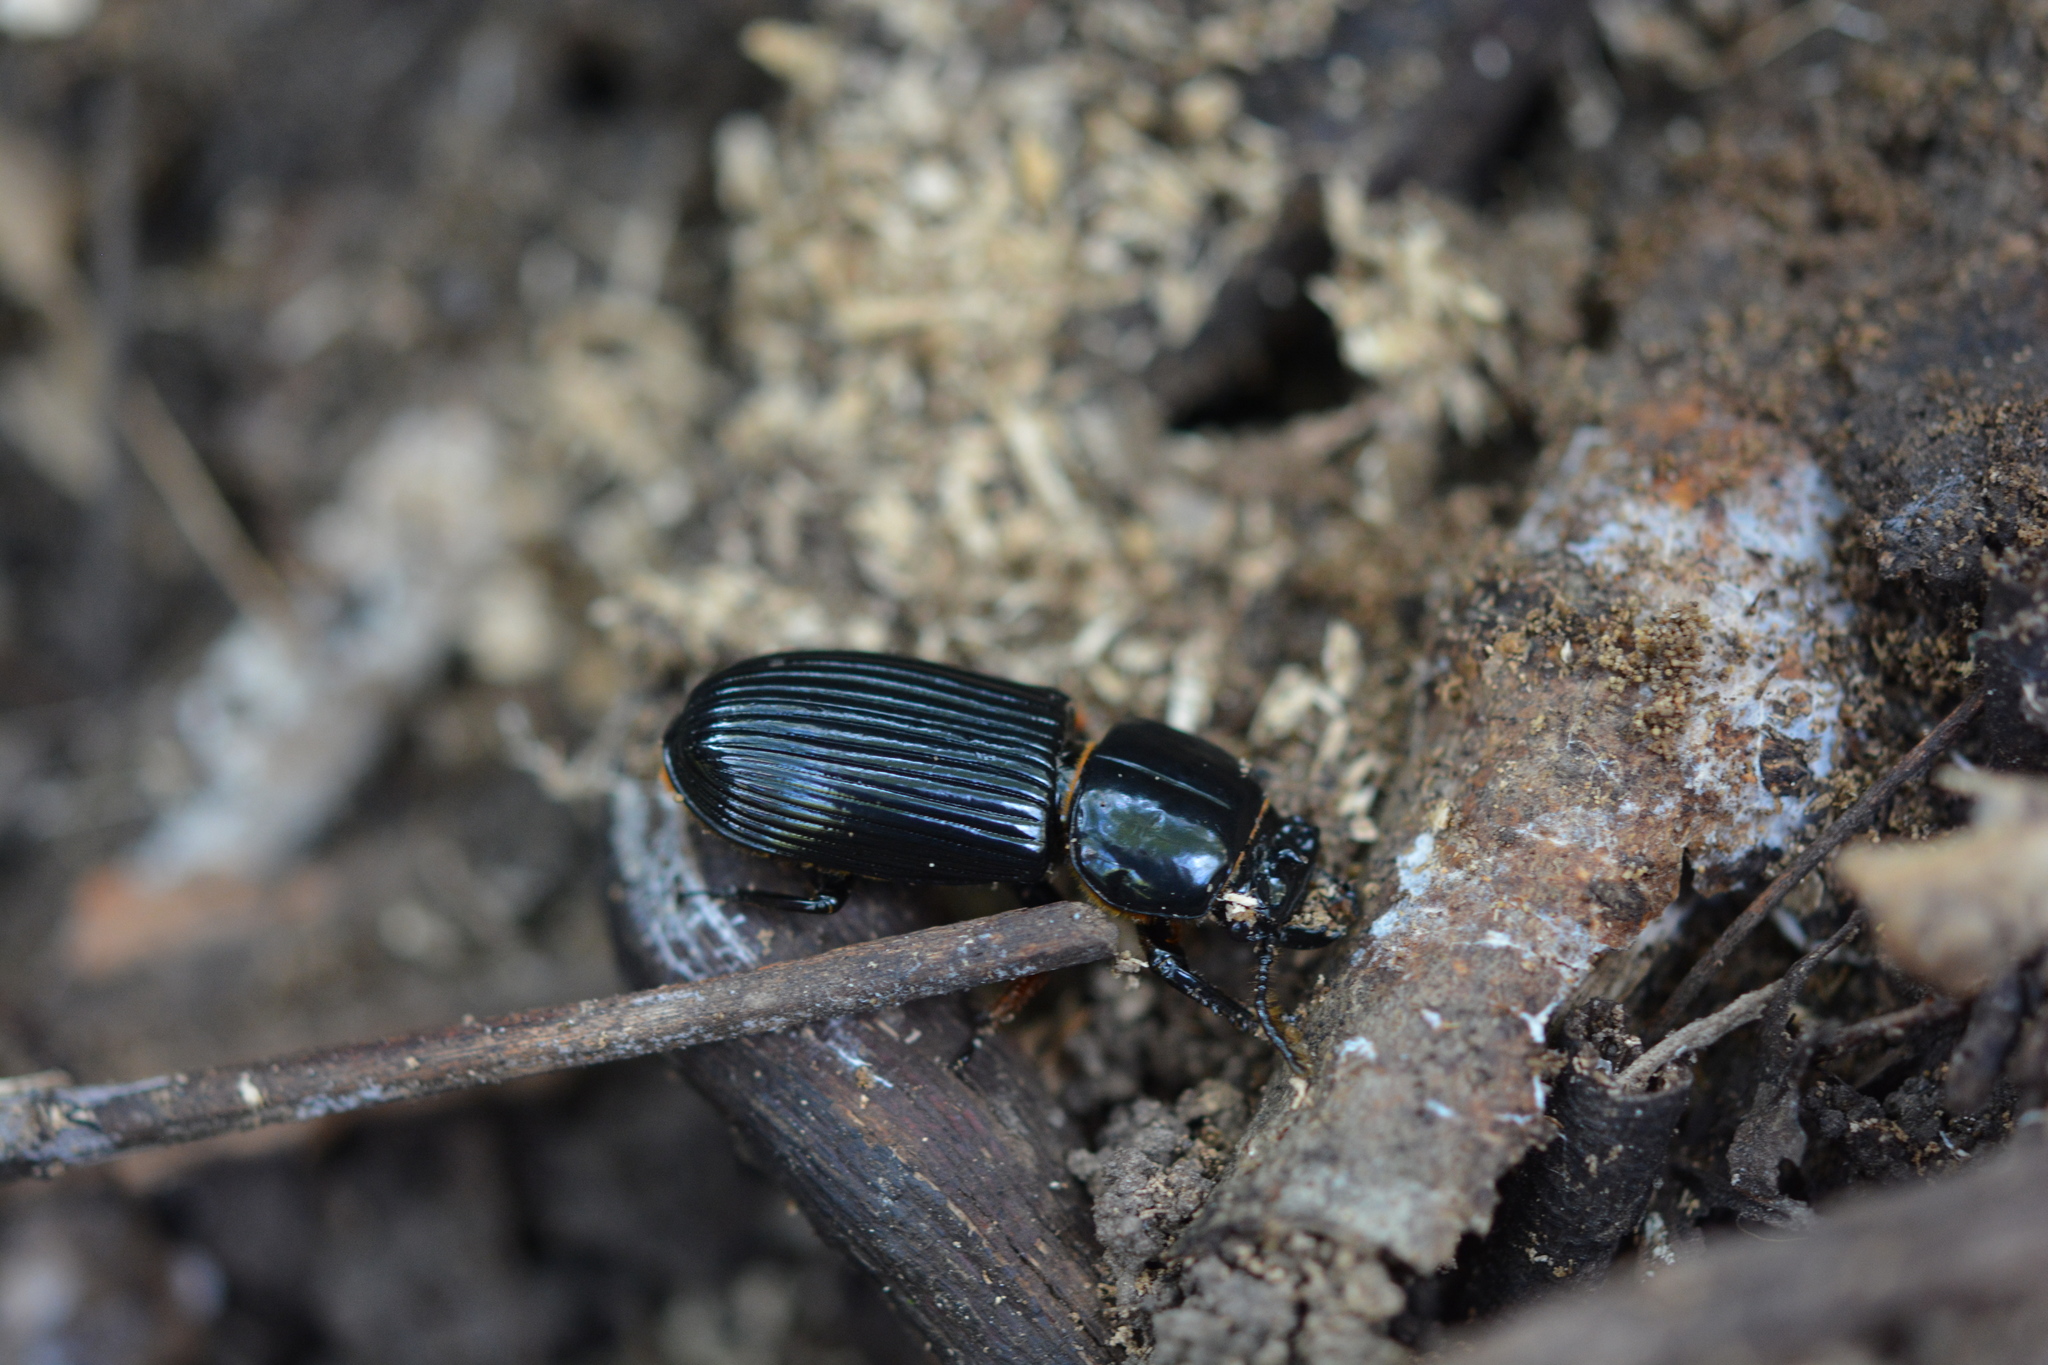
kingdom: Animalia
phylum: Arthropoda
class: Insecta
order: Coleoptera
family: Passalidae
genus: Odontotaenius
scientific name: Odontotaenius disjunctus
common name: Patent leather beetle
